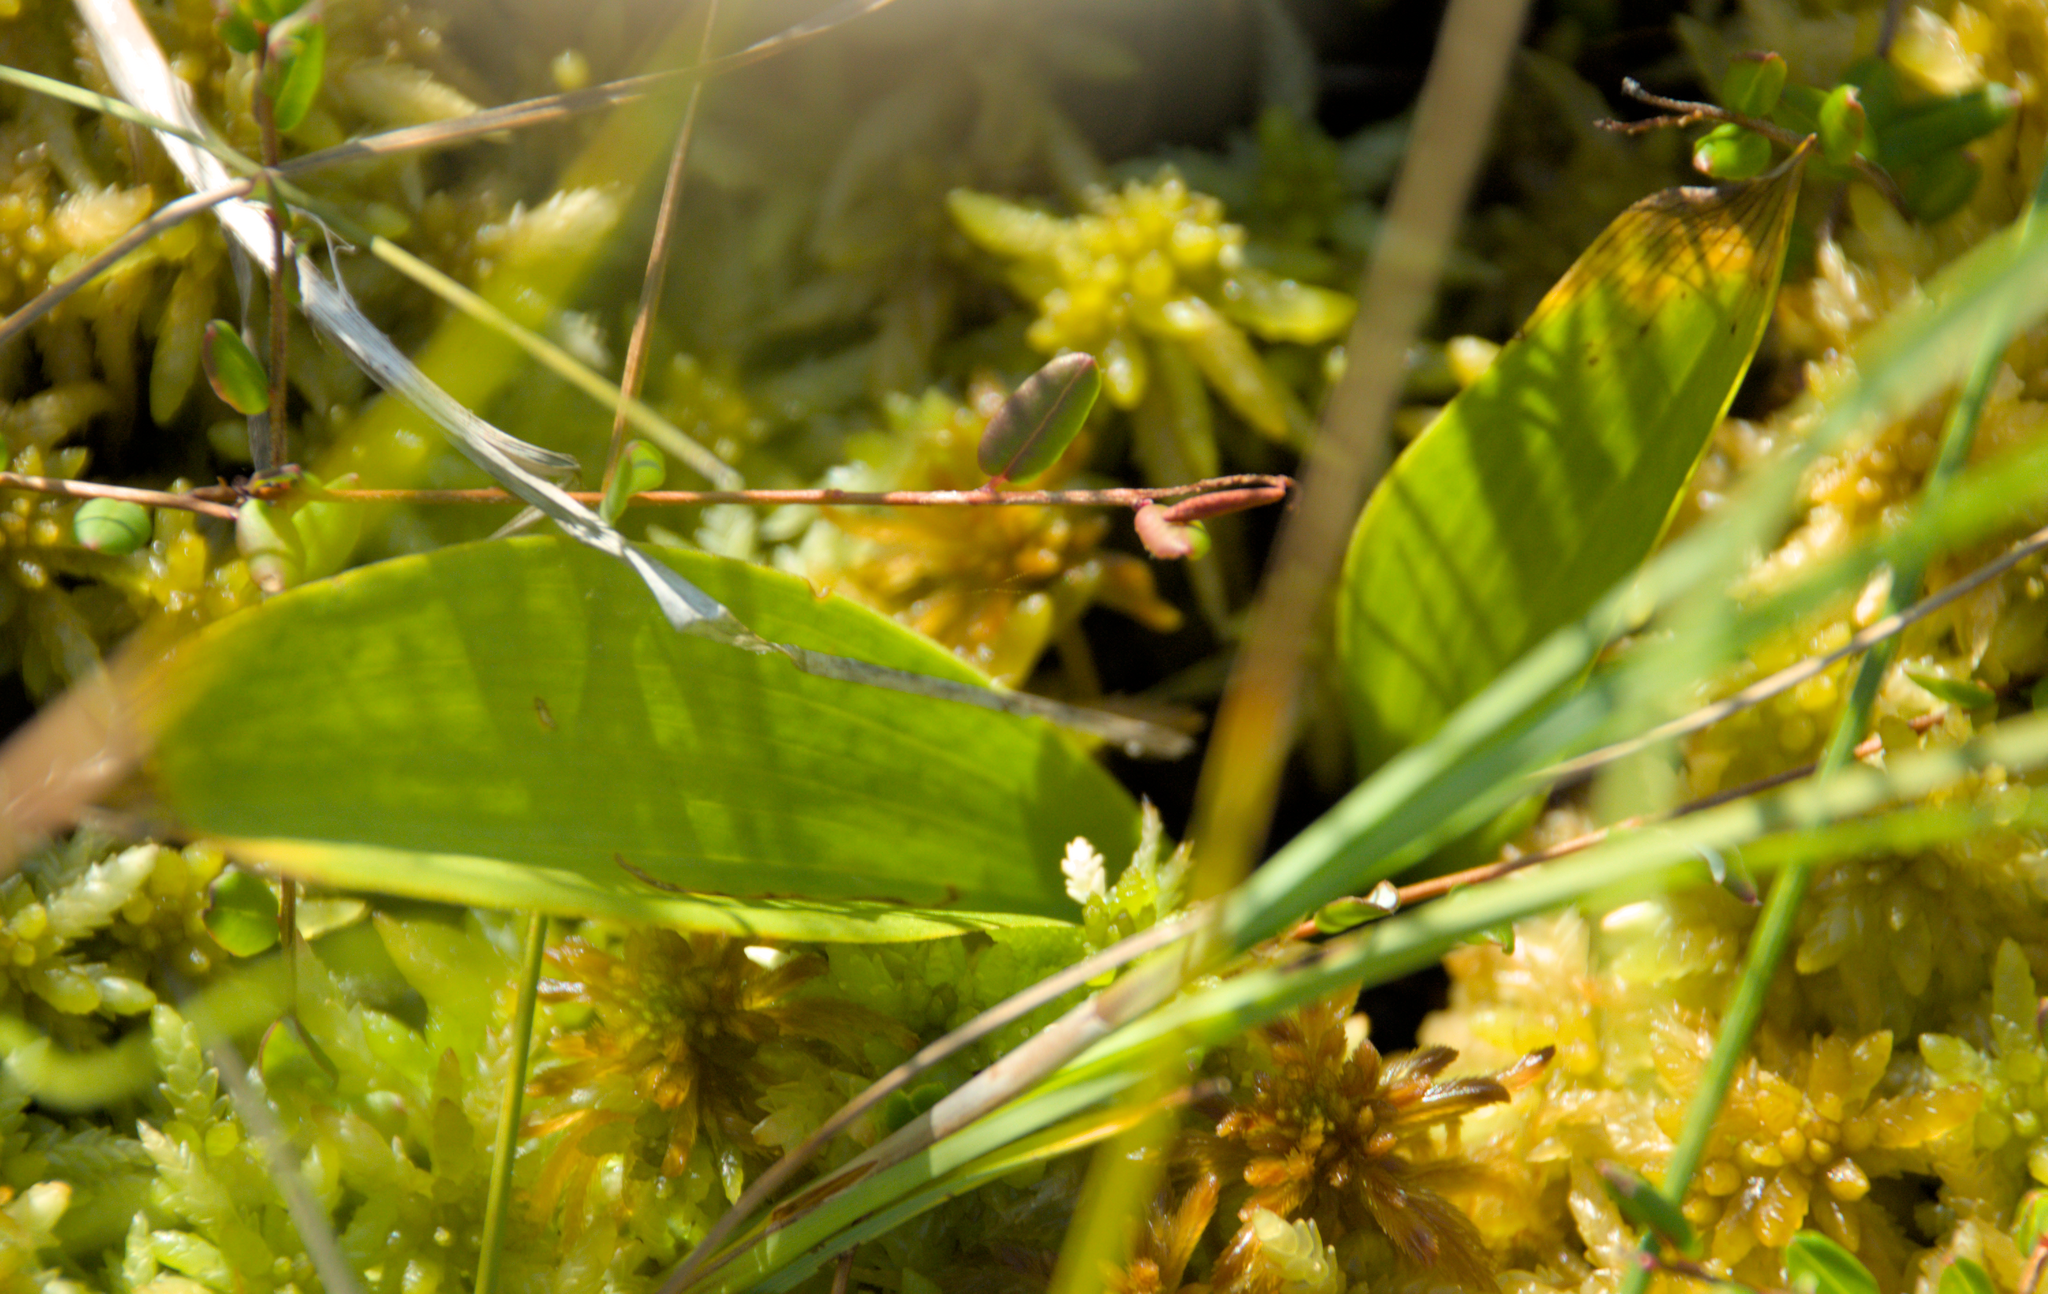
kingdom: Plantae
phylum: Tracheophyta
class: Liliopsida
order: Asparagales
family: Asparagaceae
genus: Maianthemum
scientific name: Maianthemum trifolium
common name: Swamp false solomon's seal
